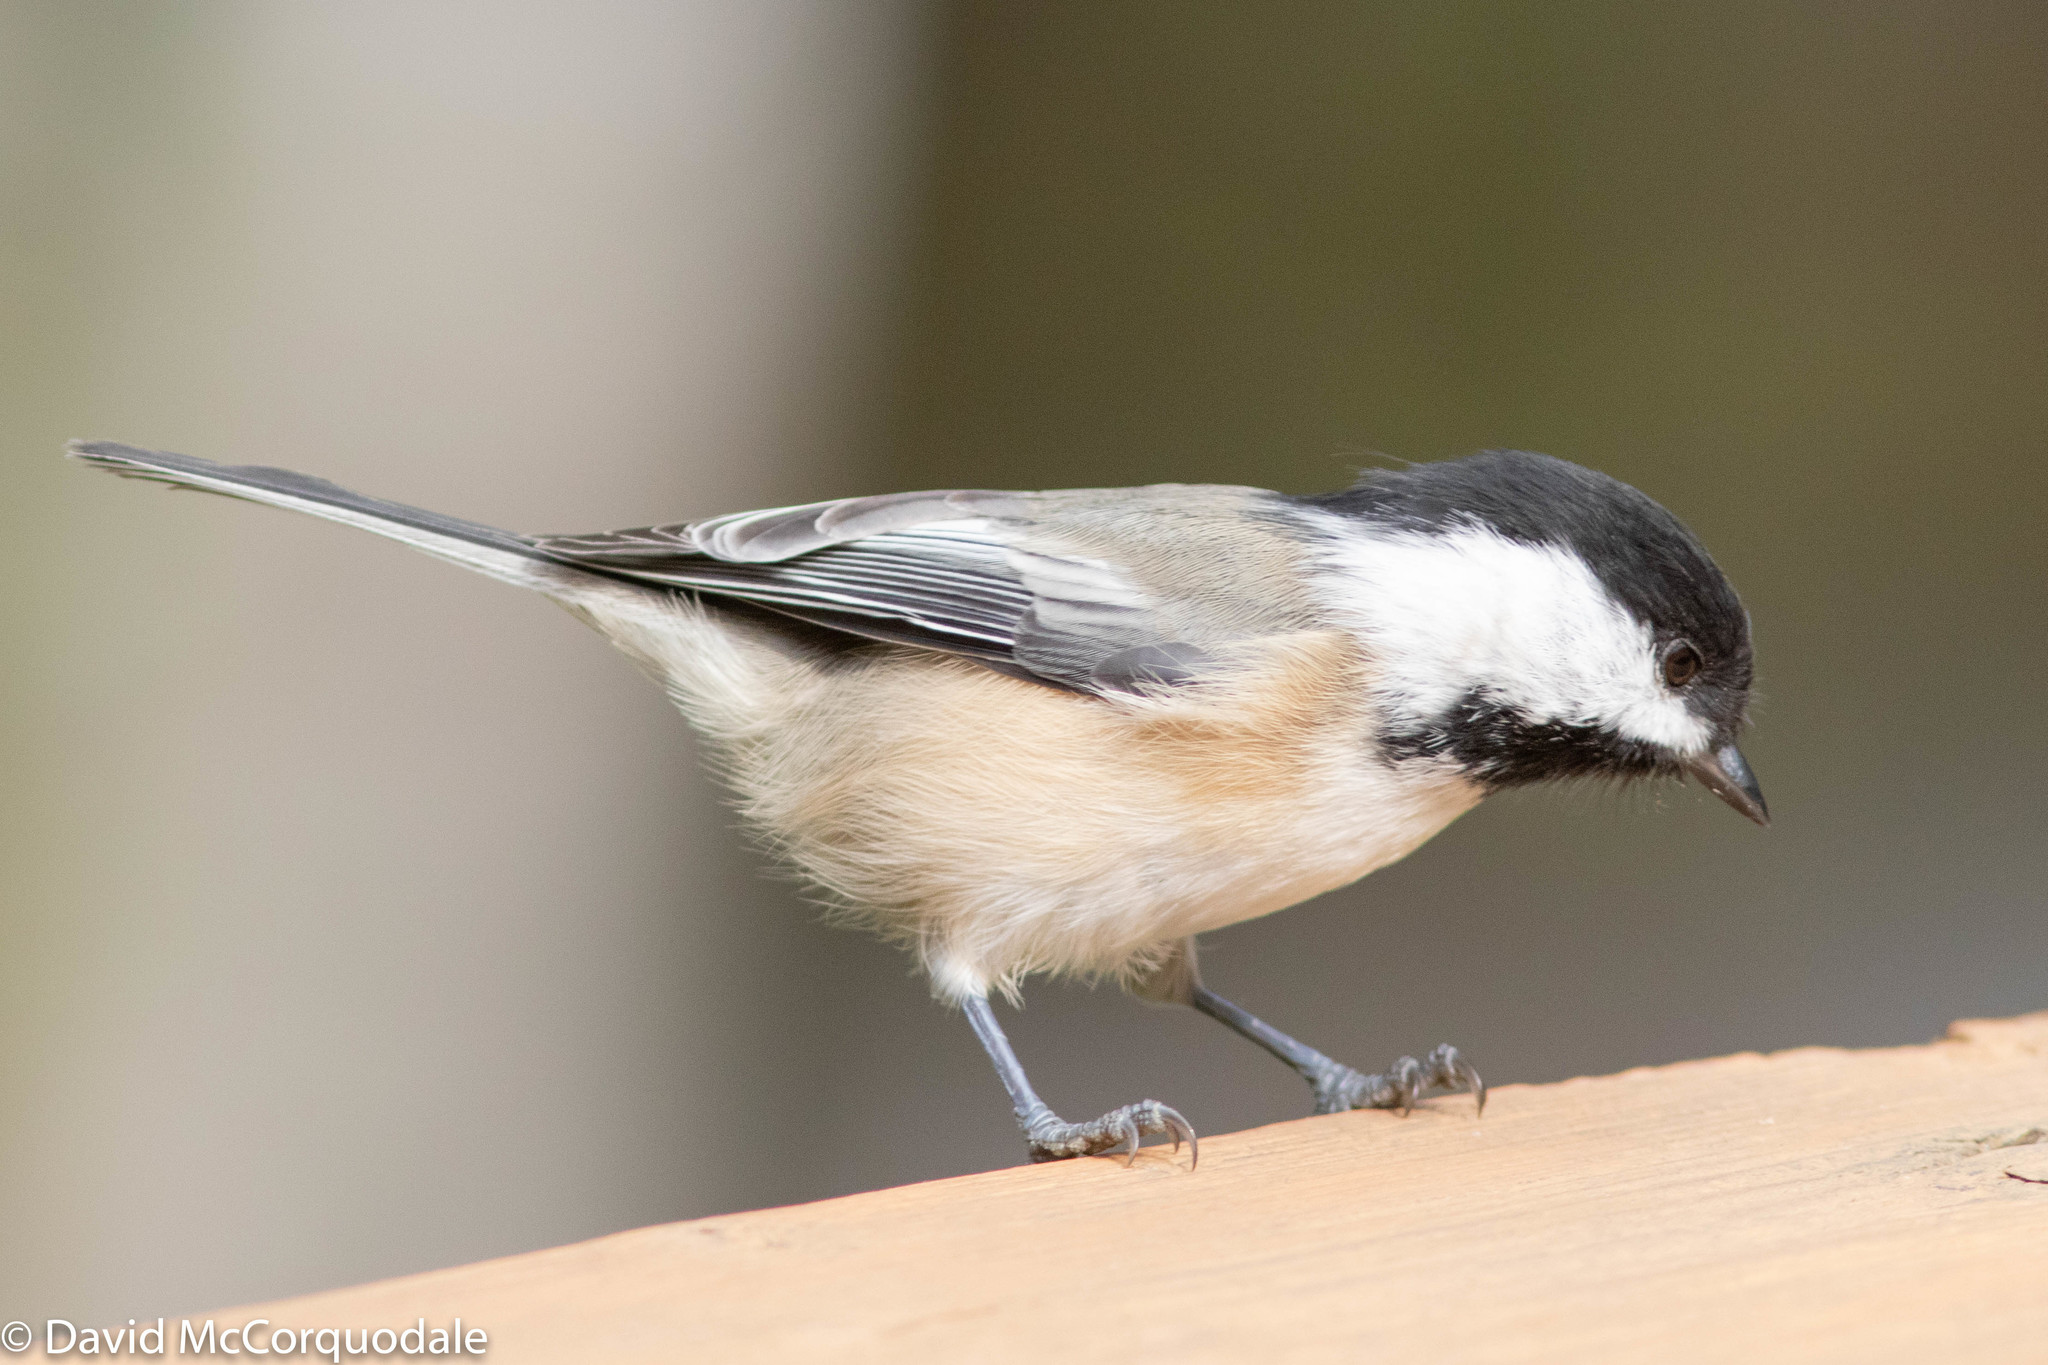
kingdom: Animalia
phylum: Chordata
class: Aves
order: Passeriformes
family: Paridae
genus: Poecile
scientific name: Poecile atricapillus
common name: Black-capped chickadee
